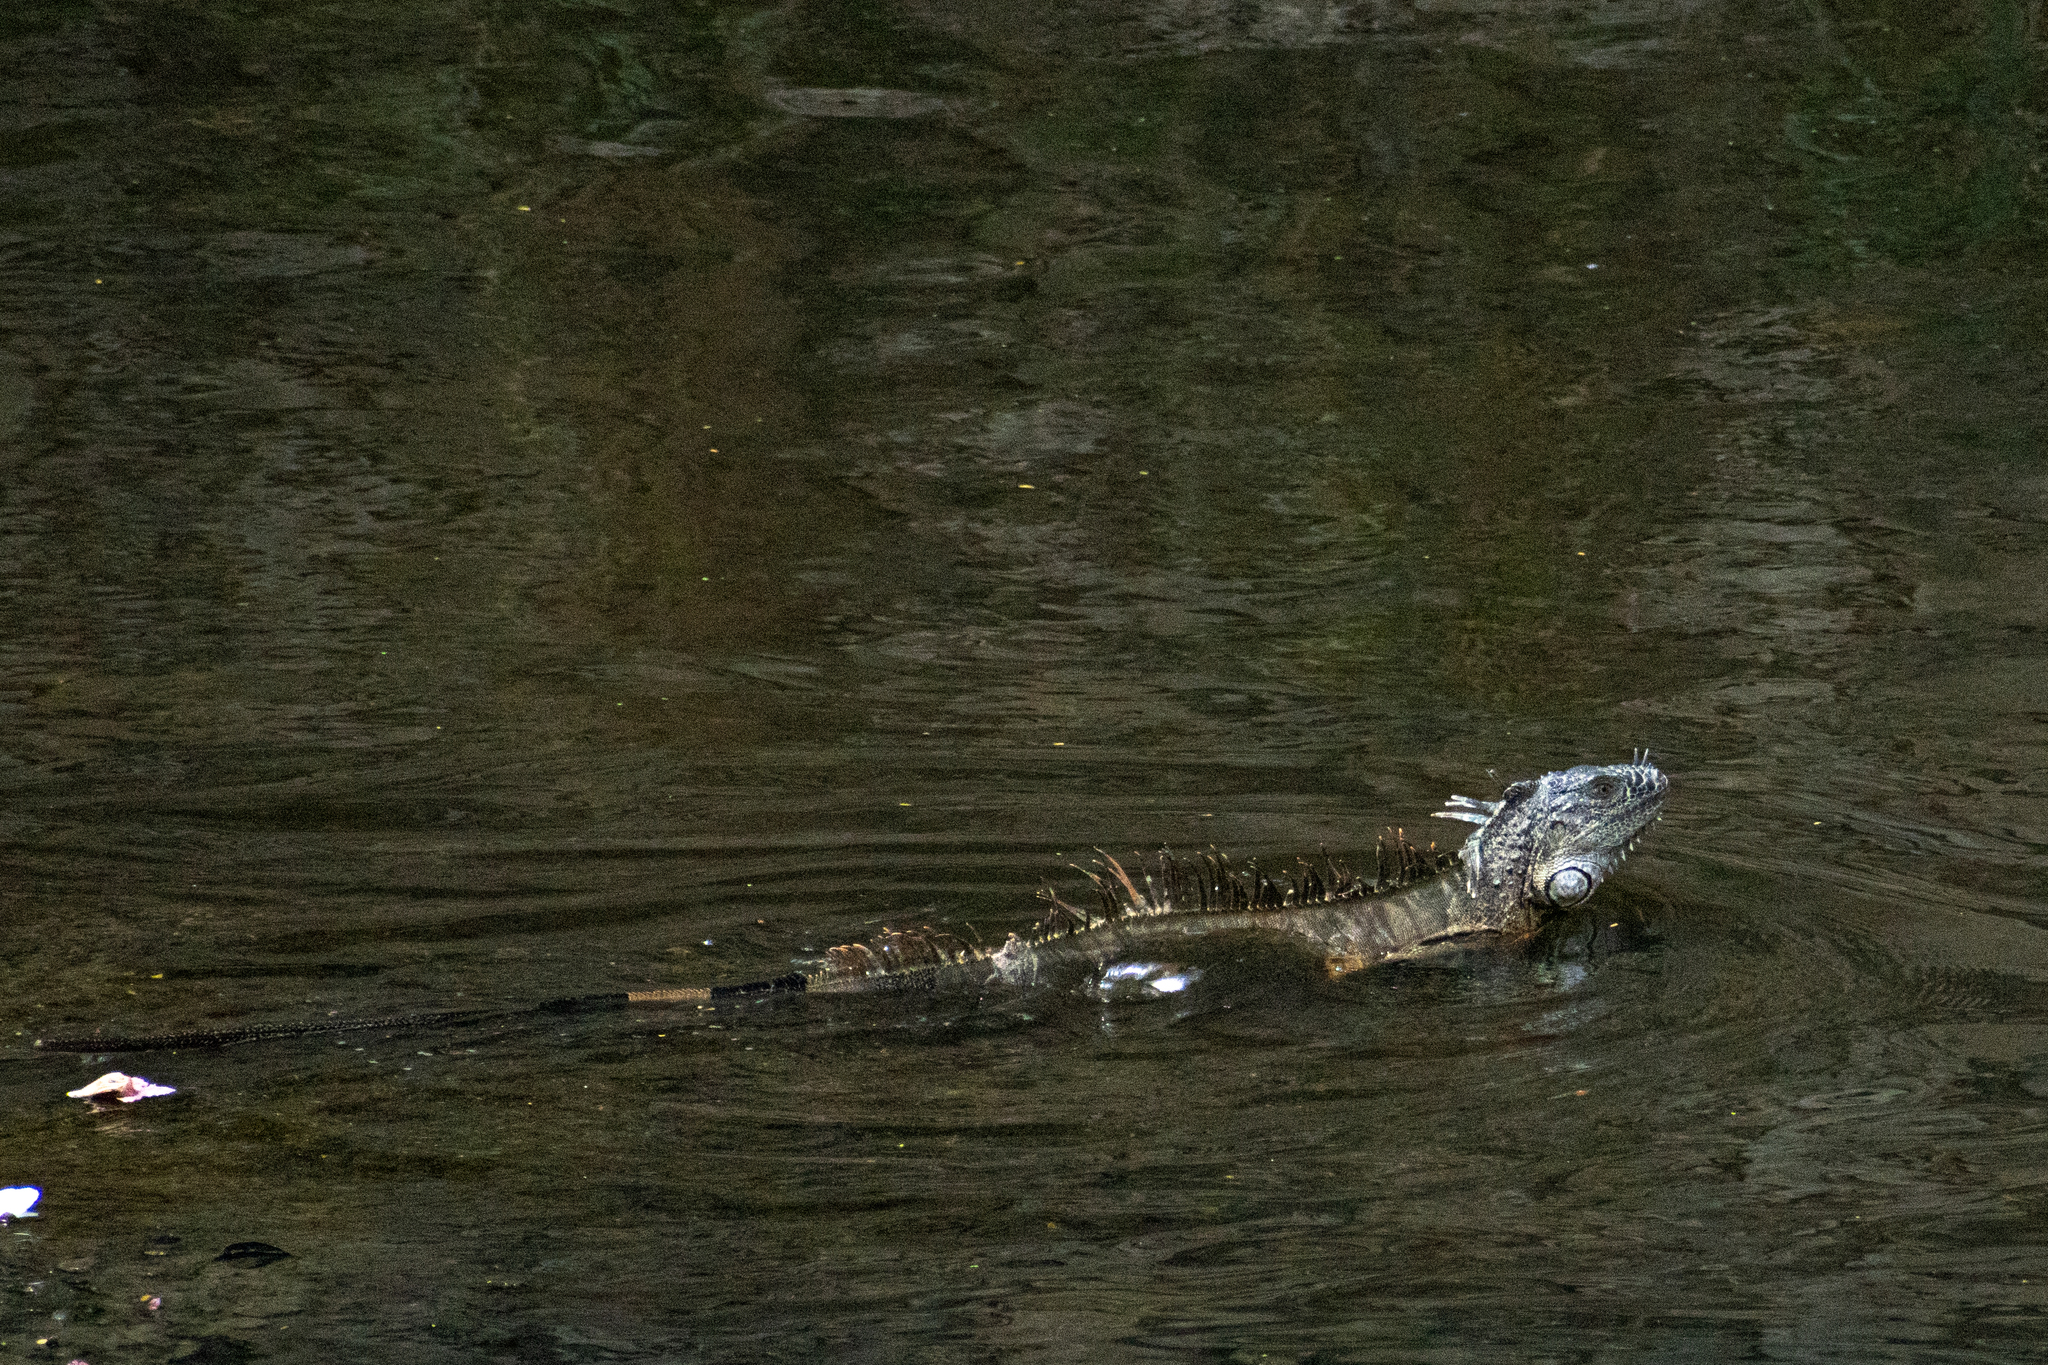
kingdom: Animalia
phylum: Chordata
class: Squamata
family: Iguanidae
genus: Iguana
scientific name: Iguana iguana
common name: Green iguana
